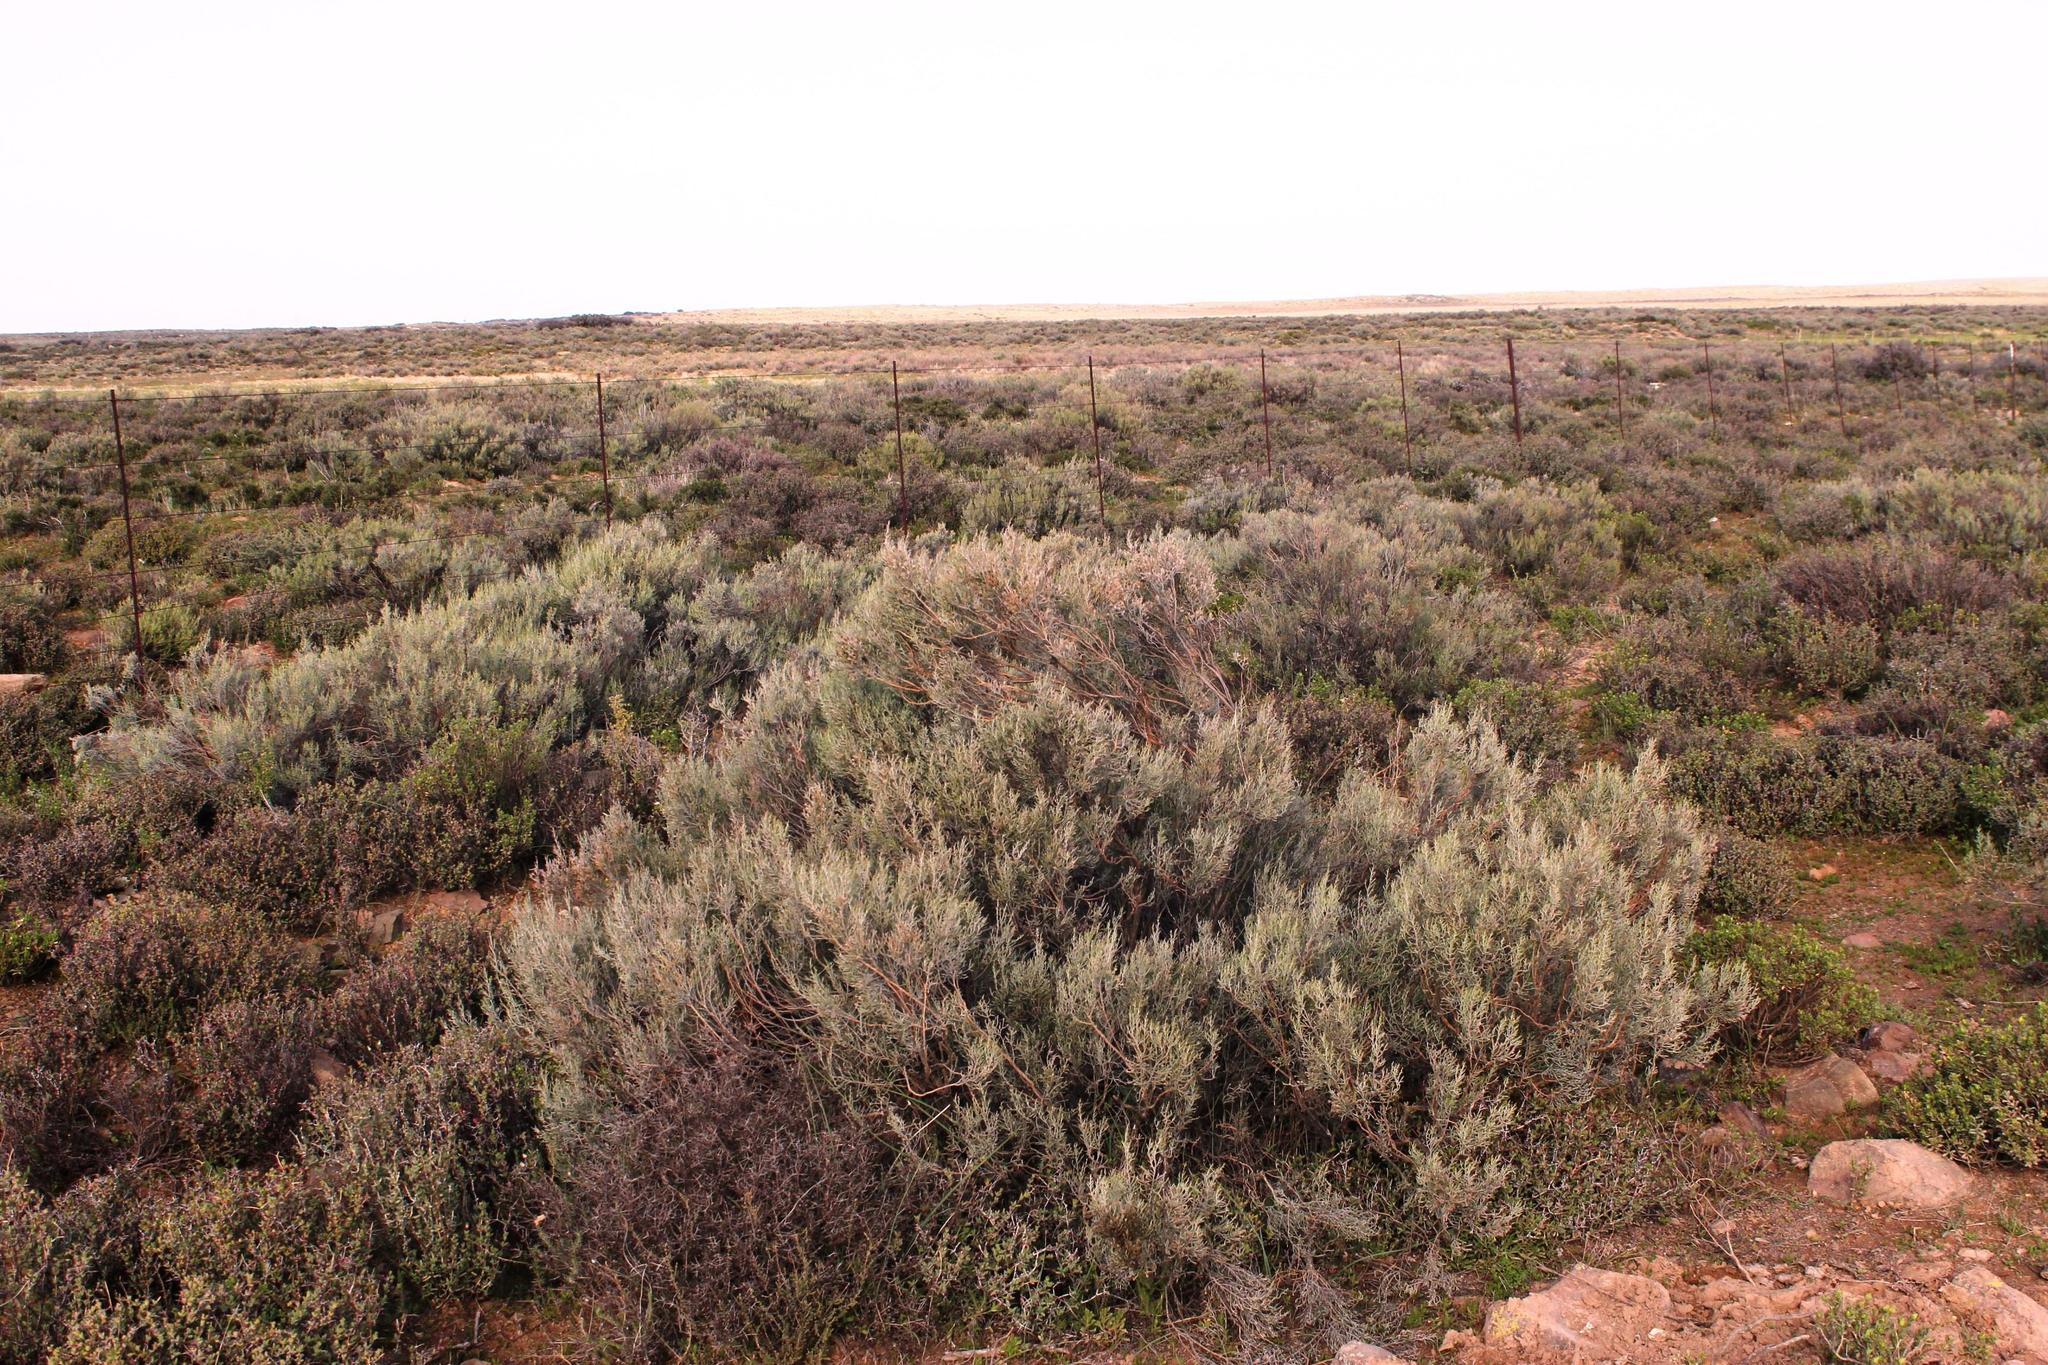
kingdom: Plantae
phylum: Tracheophyta
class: Magnoliopsida
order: Asterales
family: Asteraceae
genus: Dicerothamnus
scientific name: Dicerothamnus rhinocerotis
